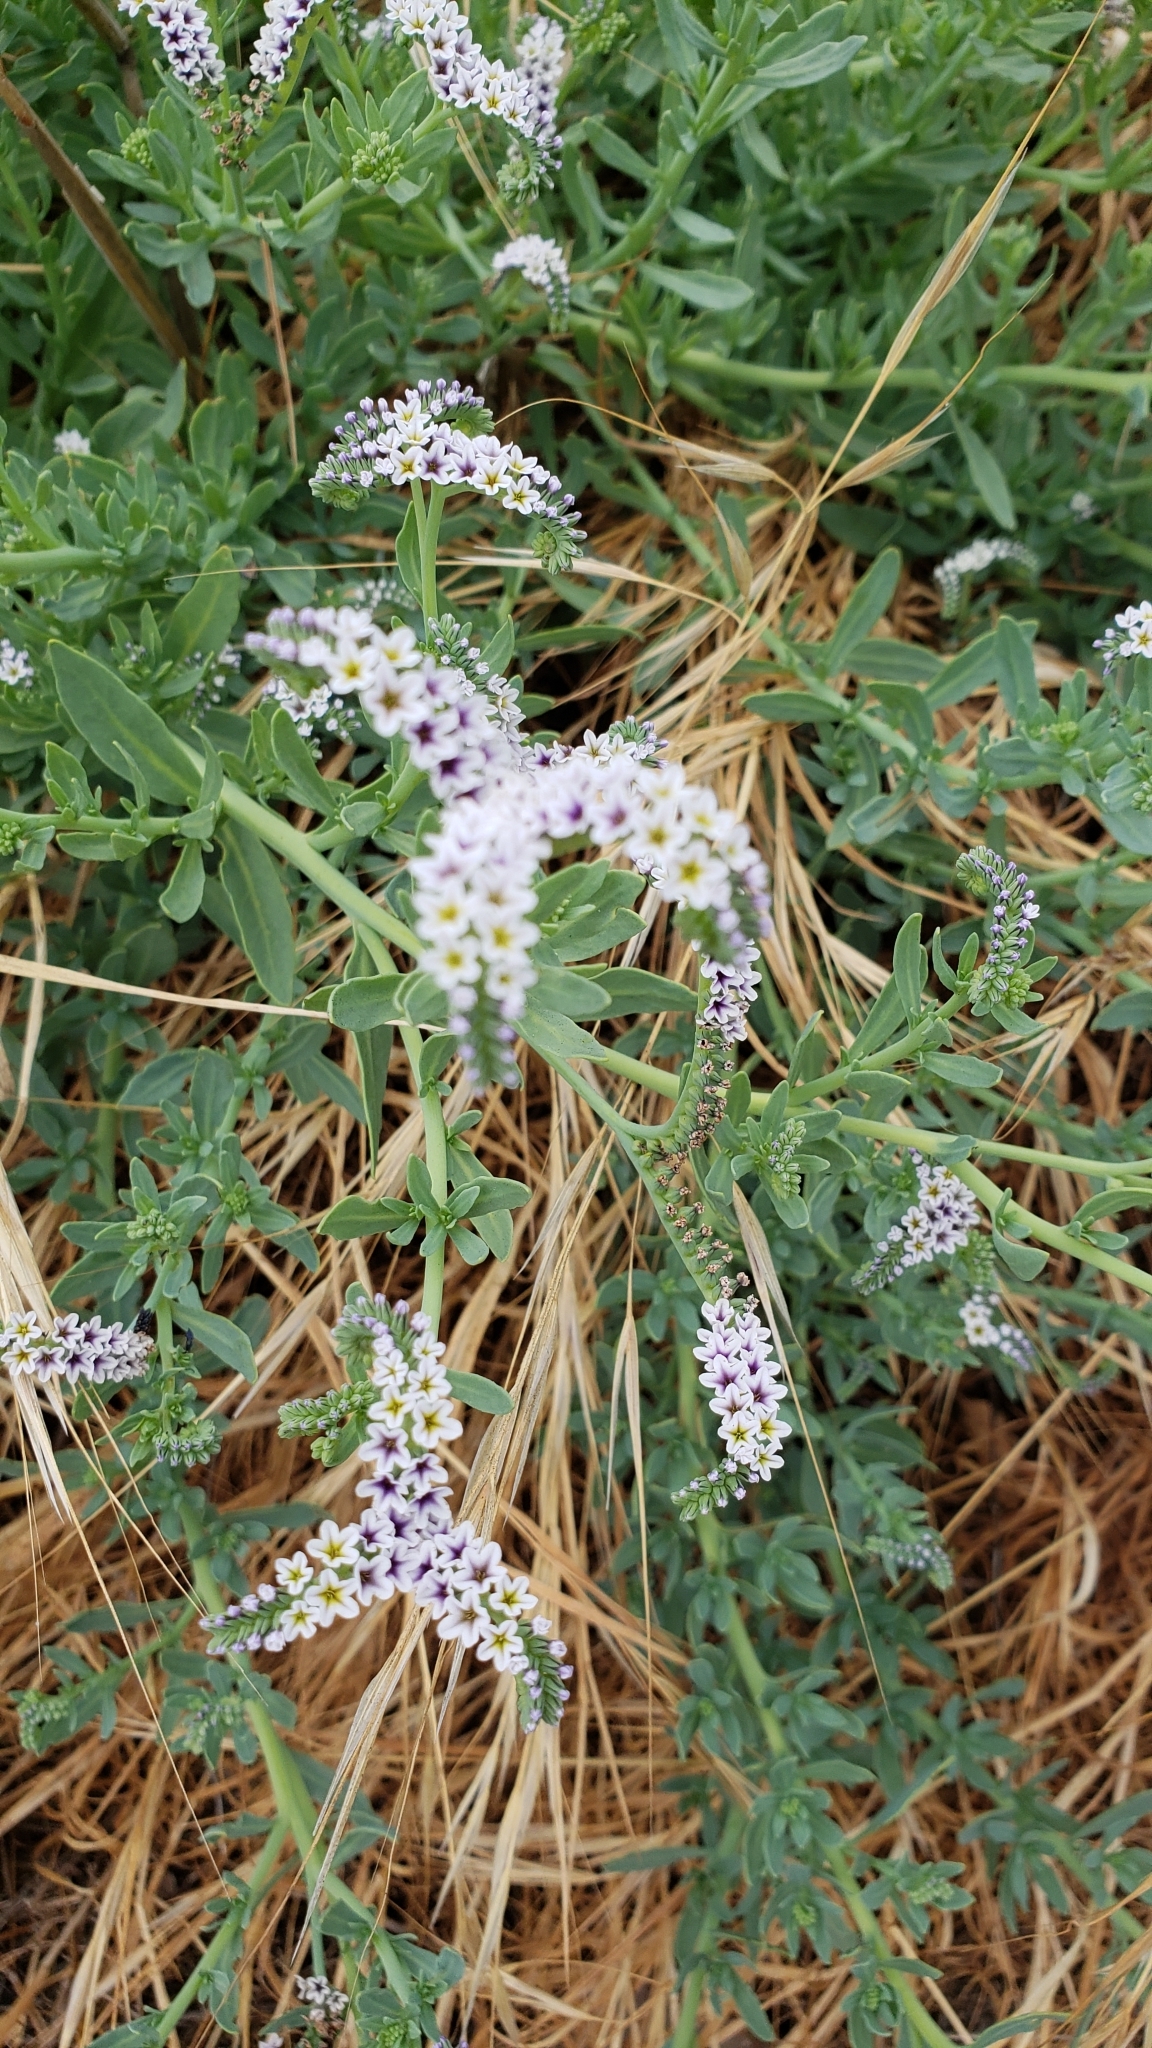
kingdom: Plantae
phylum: Tracheophyta
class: Magnoliopsida
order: Boraginales
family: Heliotropiaceae
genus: Heliotropium
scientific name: Heliotropium curassavicum
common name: Seaside heliotrope
